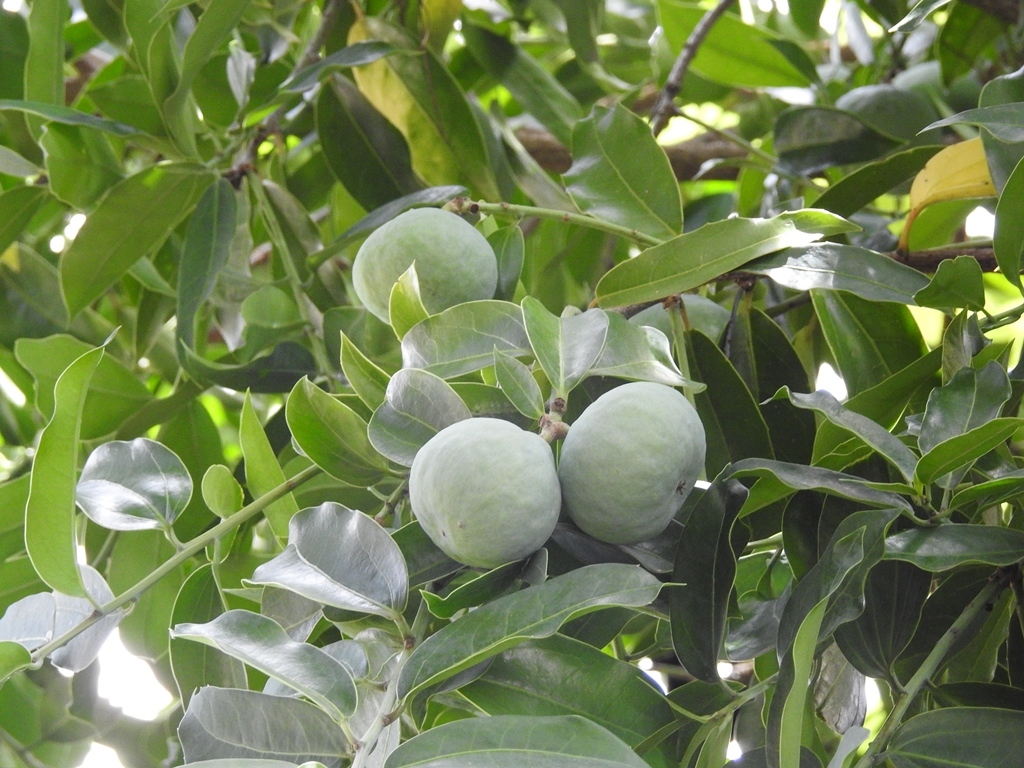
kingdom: Plantae
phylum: Tracheophyta
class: Magnoliopsida
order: Malpighiales
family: Salicaceae
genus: Olmediella
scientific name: Olmediella betschleriana
